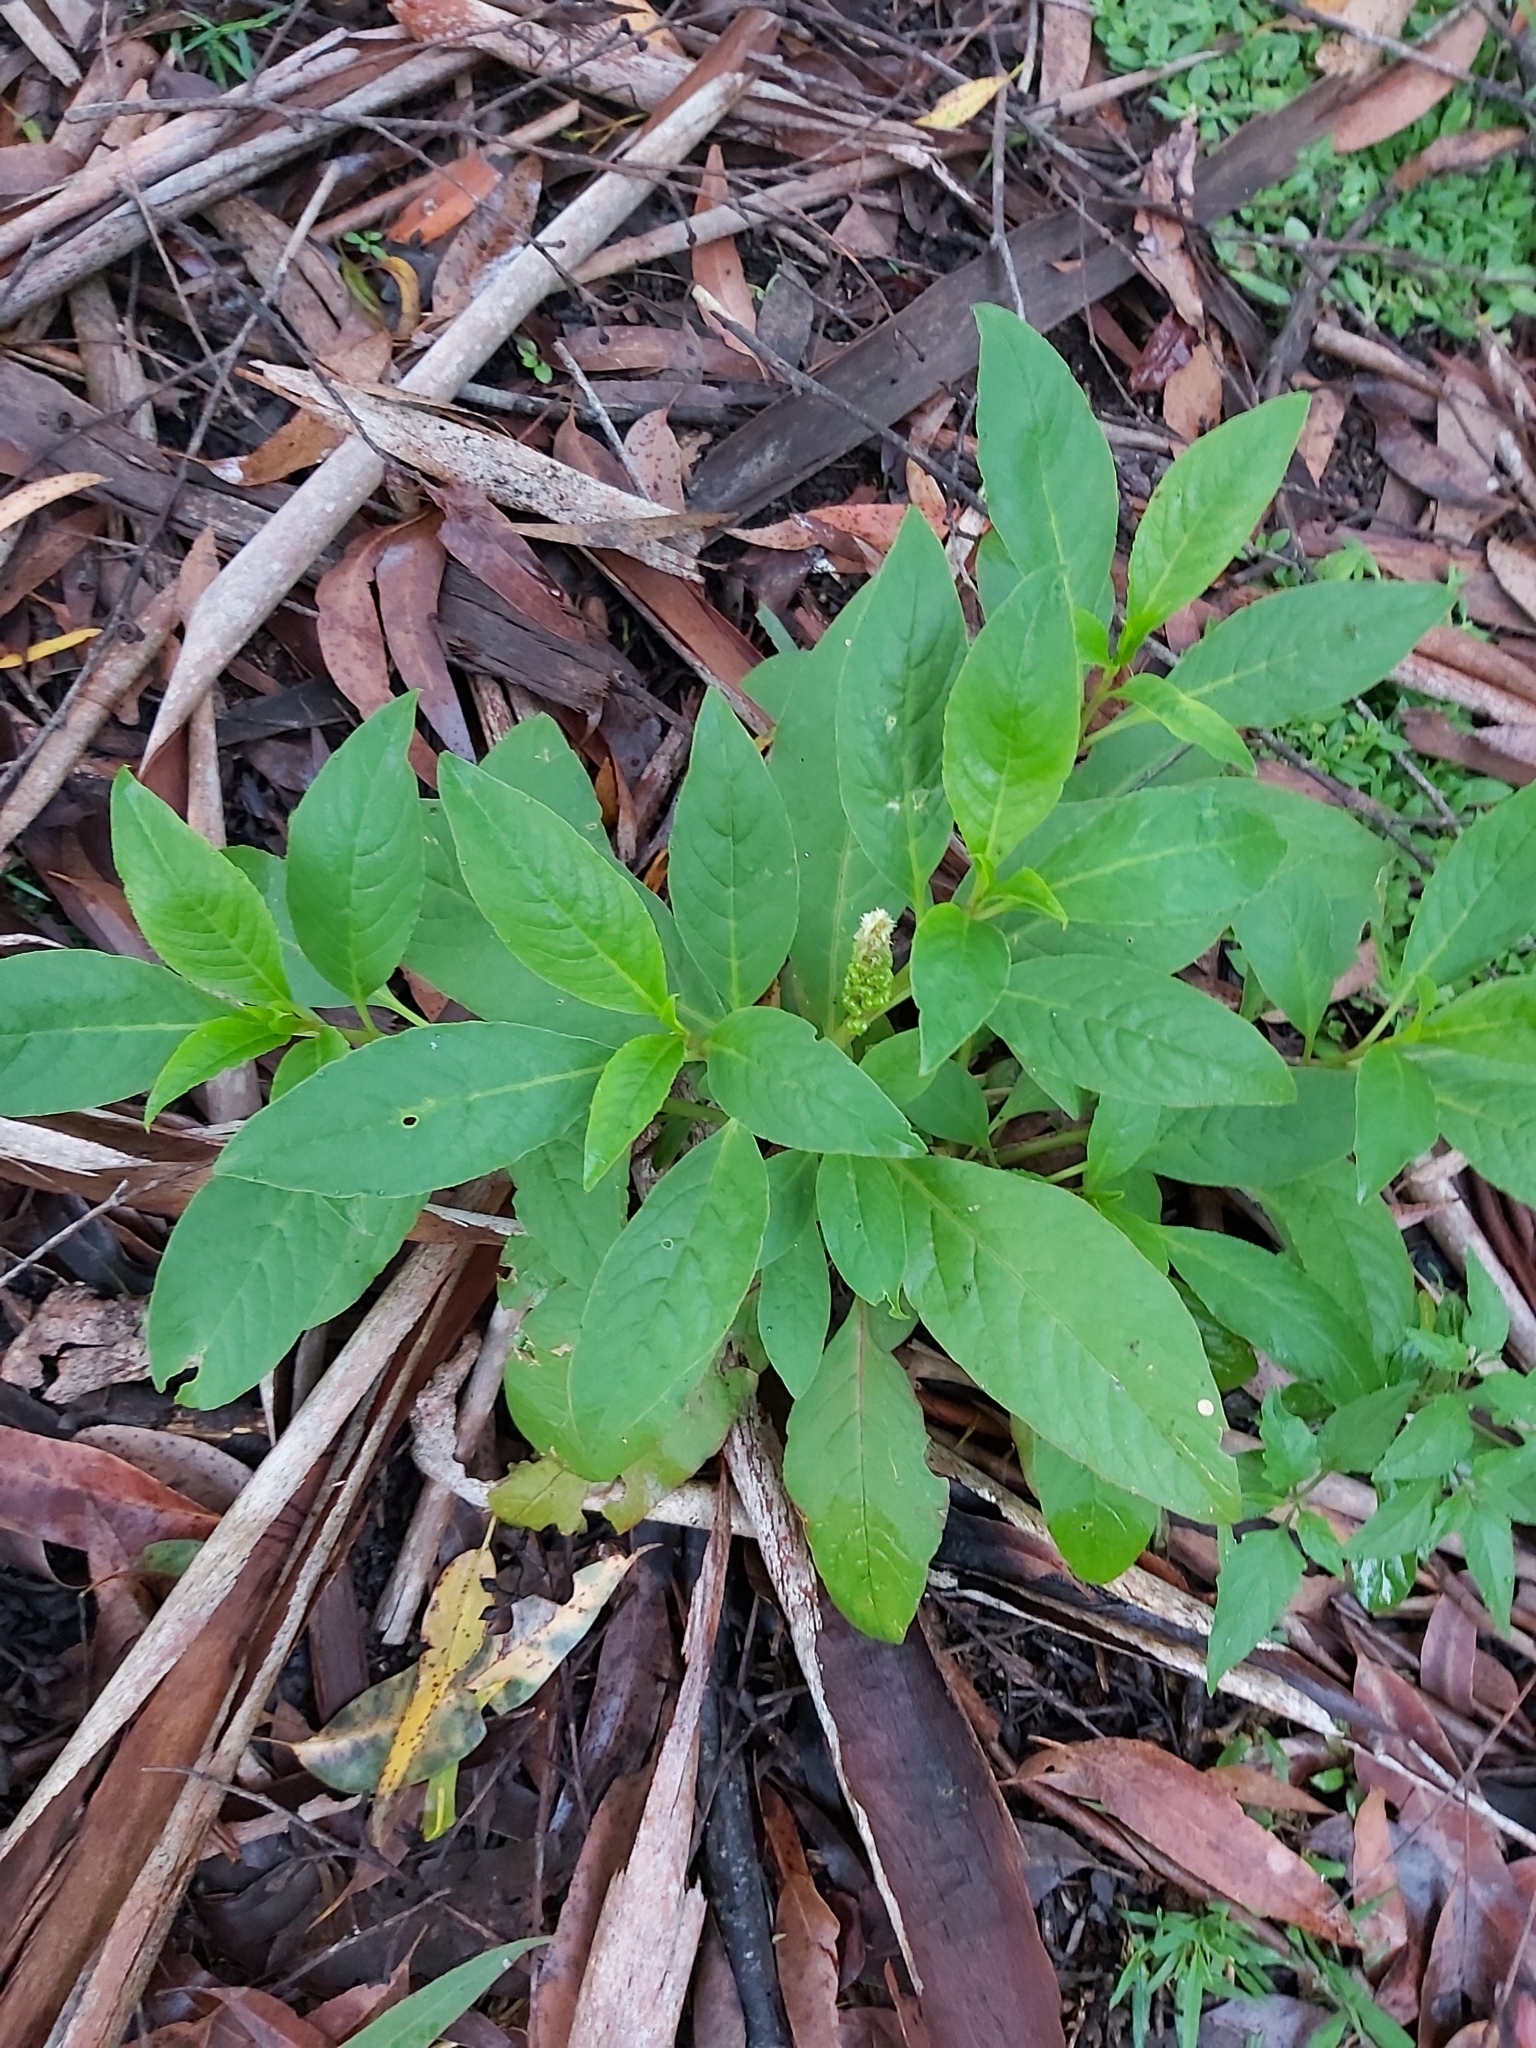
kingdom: Plantae
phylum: Tracheophyta
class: Magnoliopsida
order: Caryophyllales
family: Phytolaccaceae
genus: Phytolacca
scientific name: Phytolacca icosandra
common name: Button pokeweed
